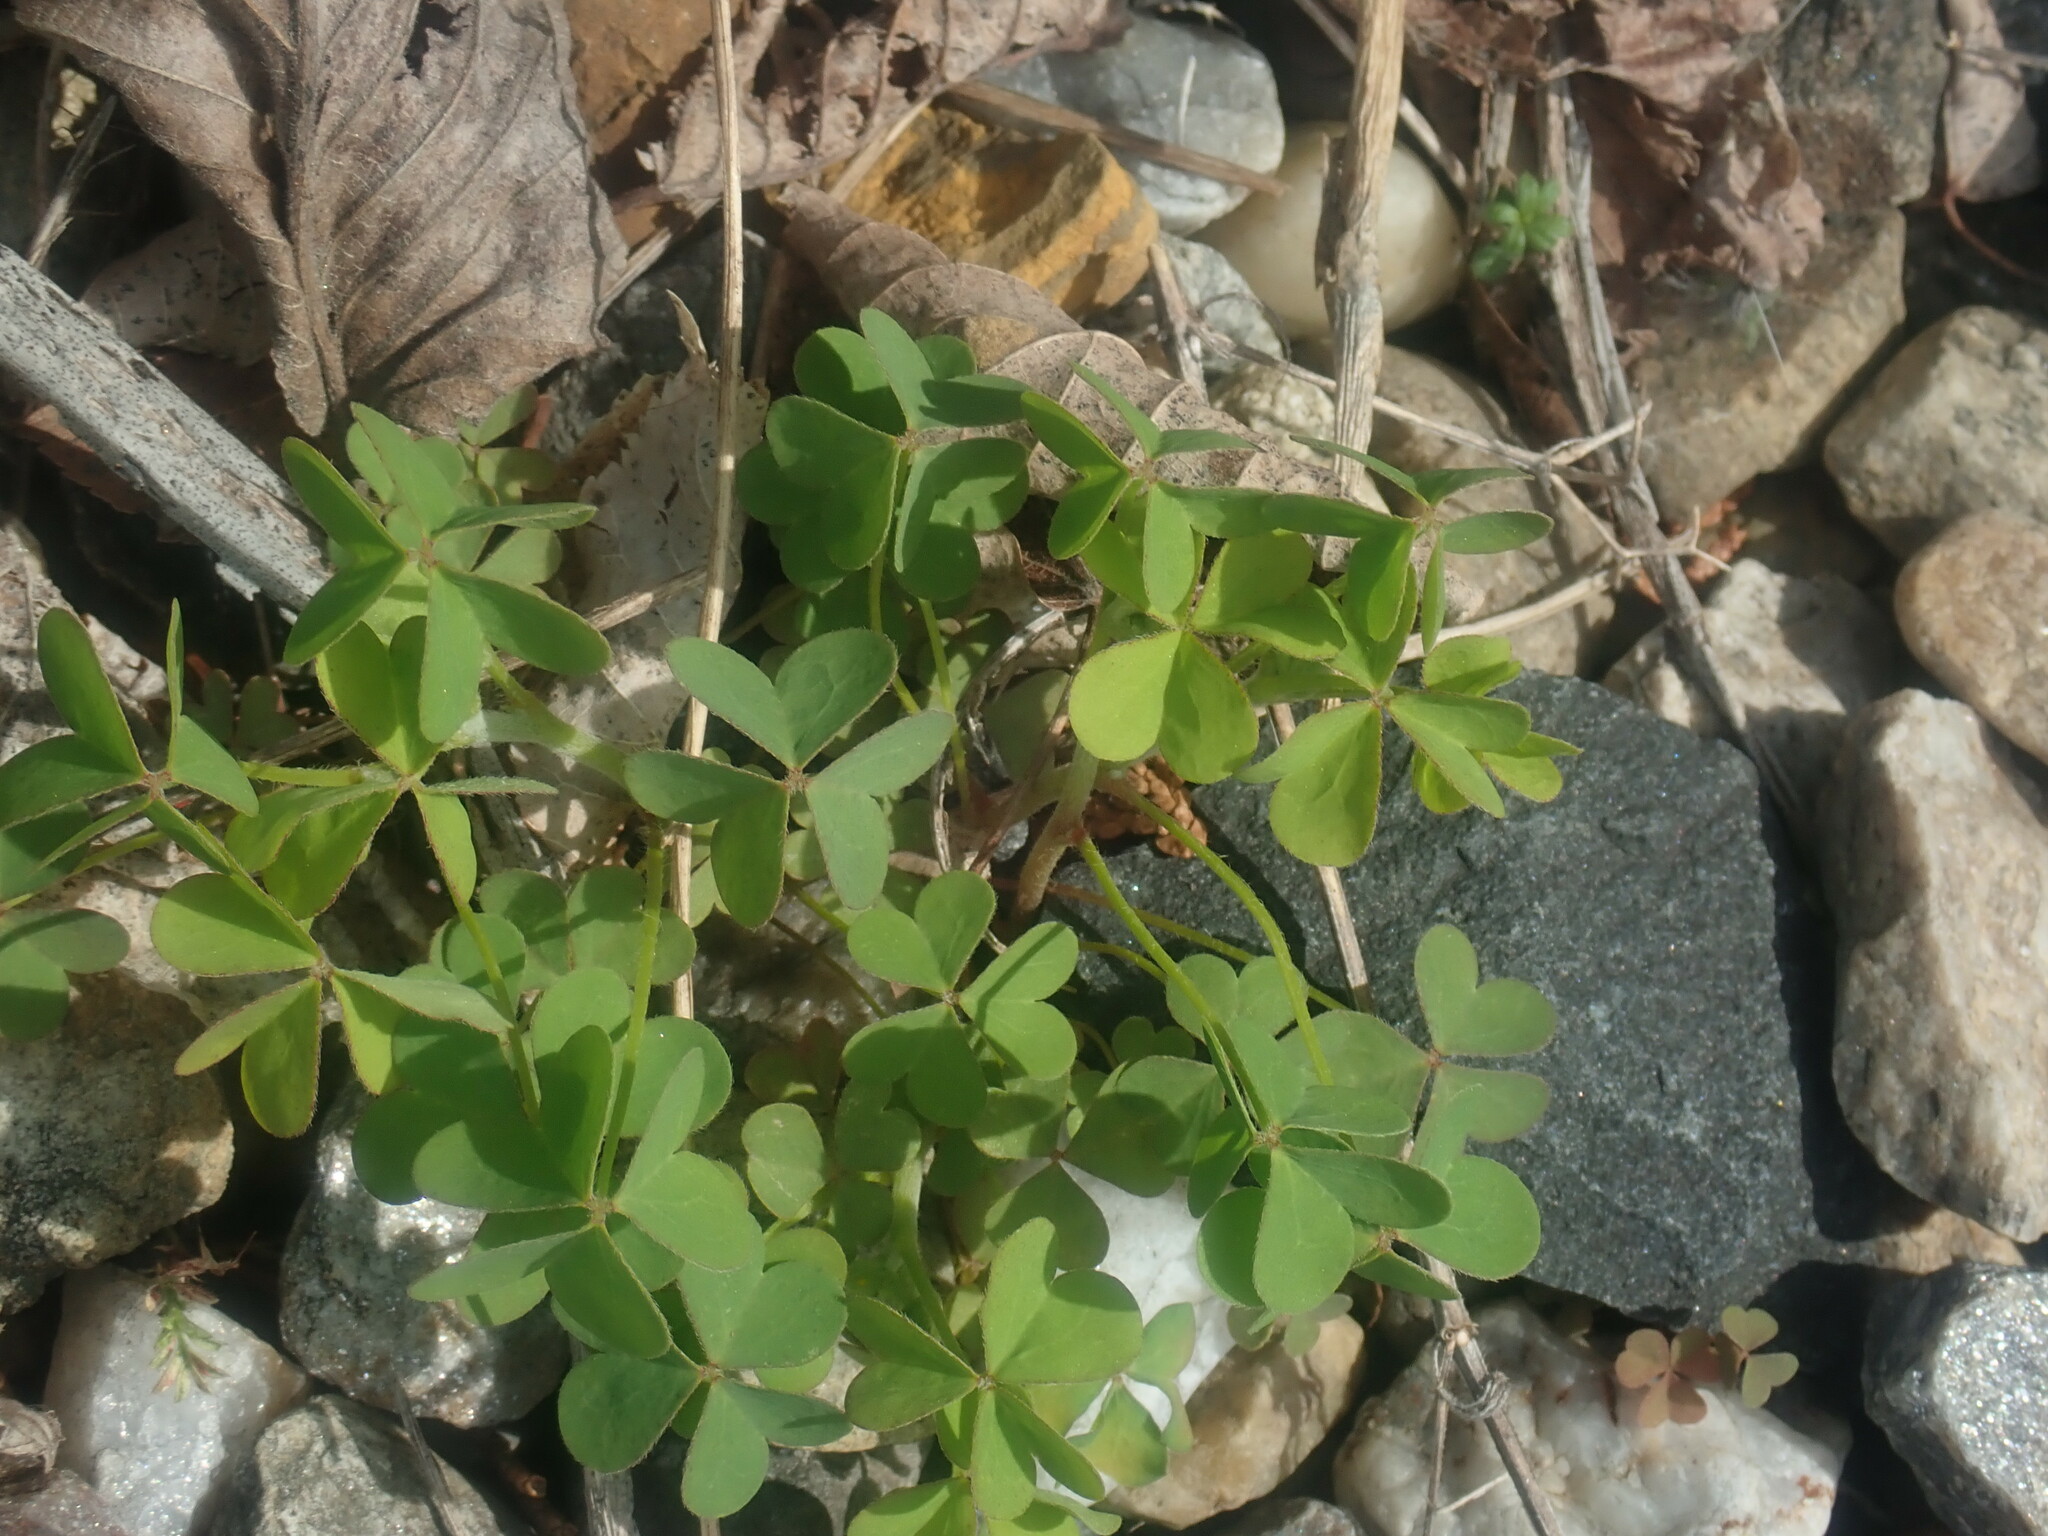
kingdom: Plantae
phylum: Tracheophyta
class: Magnoliopsida
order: Oxalidales
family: Oxalidaceae
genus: Oxalis
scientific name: Oxalis
